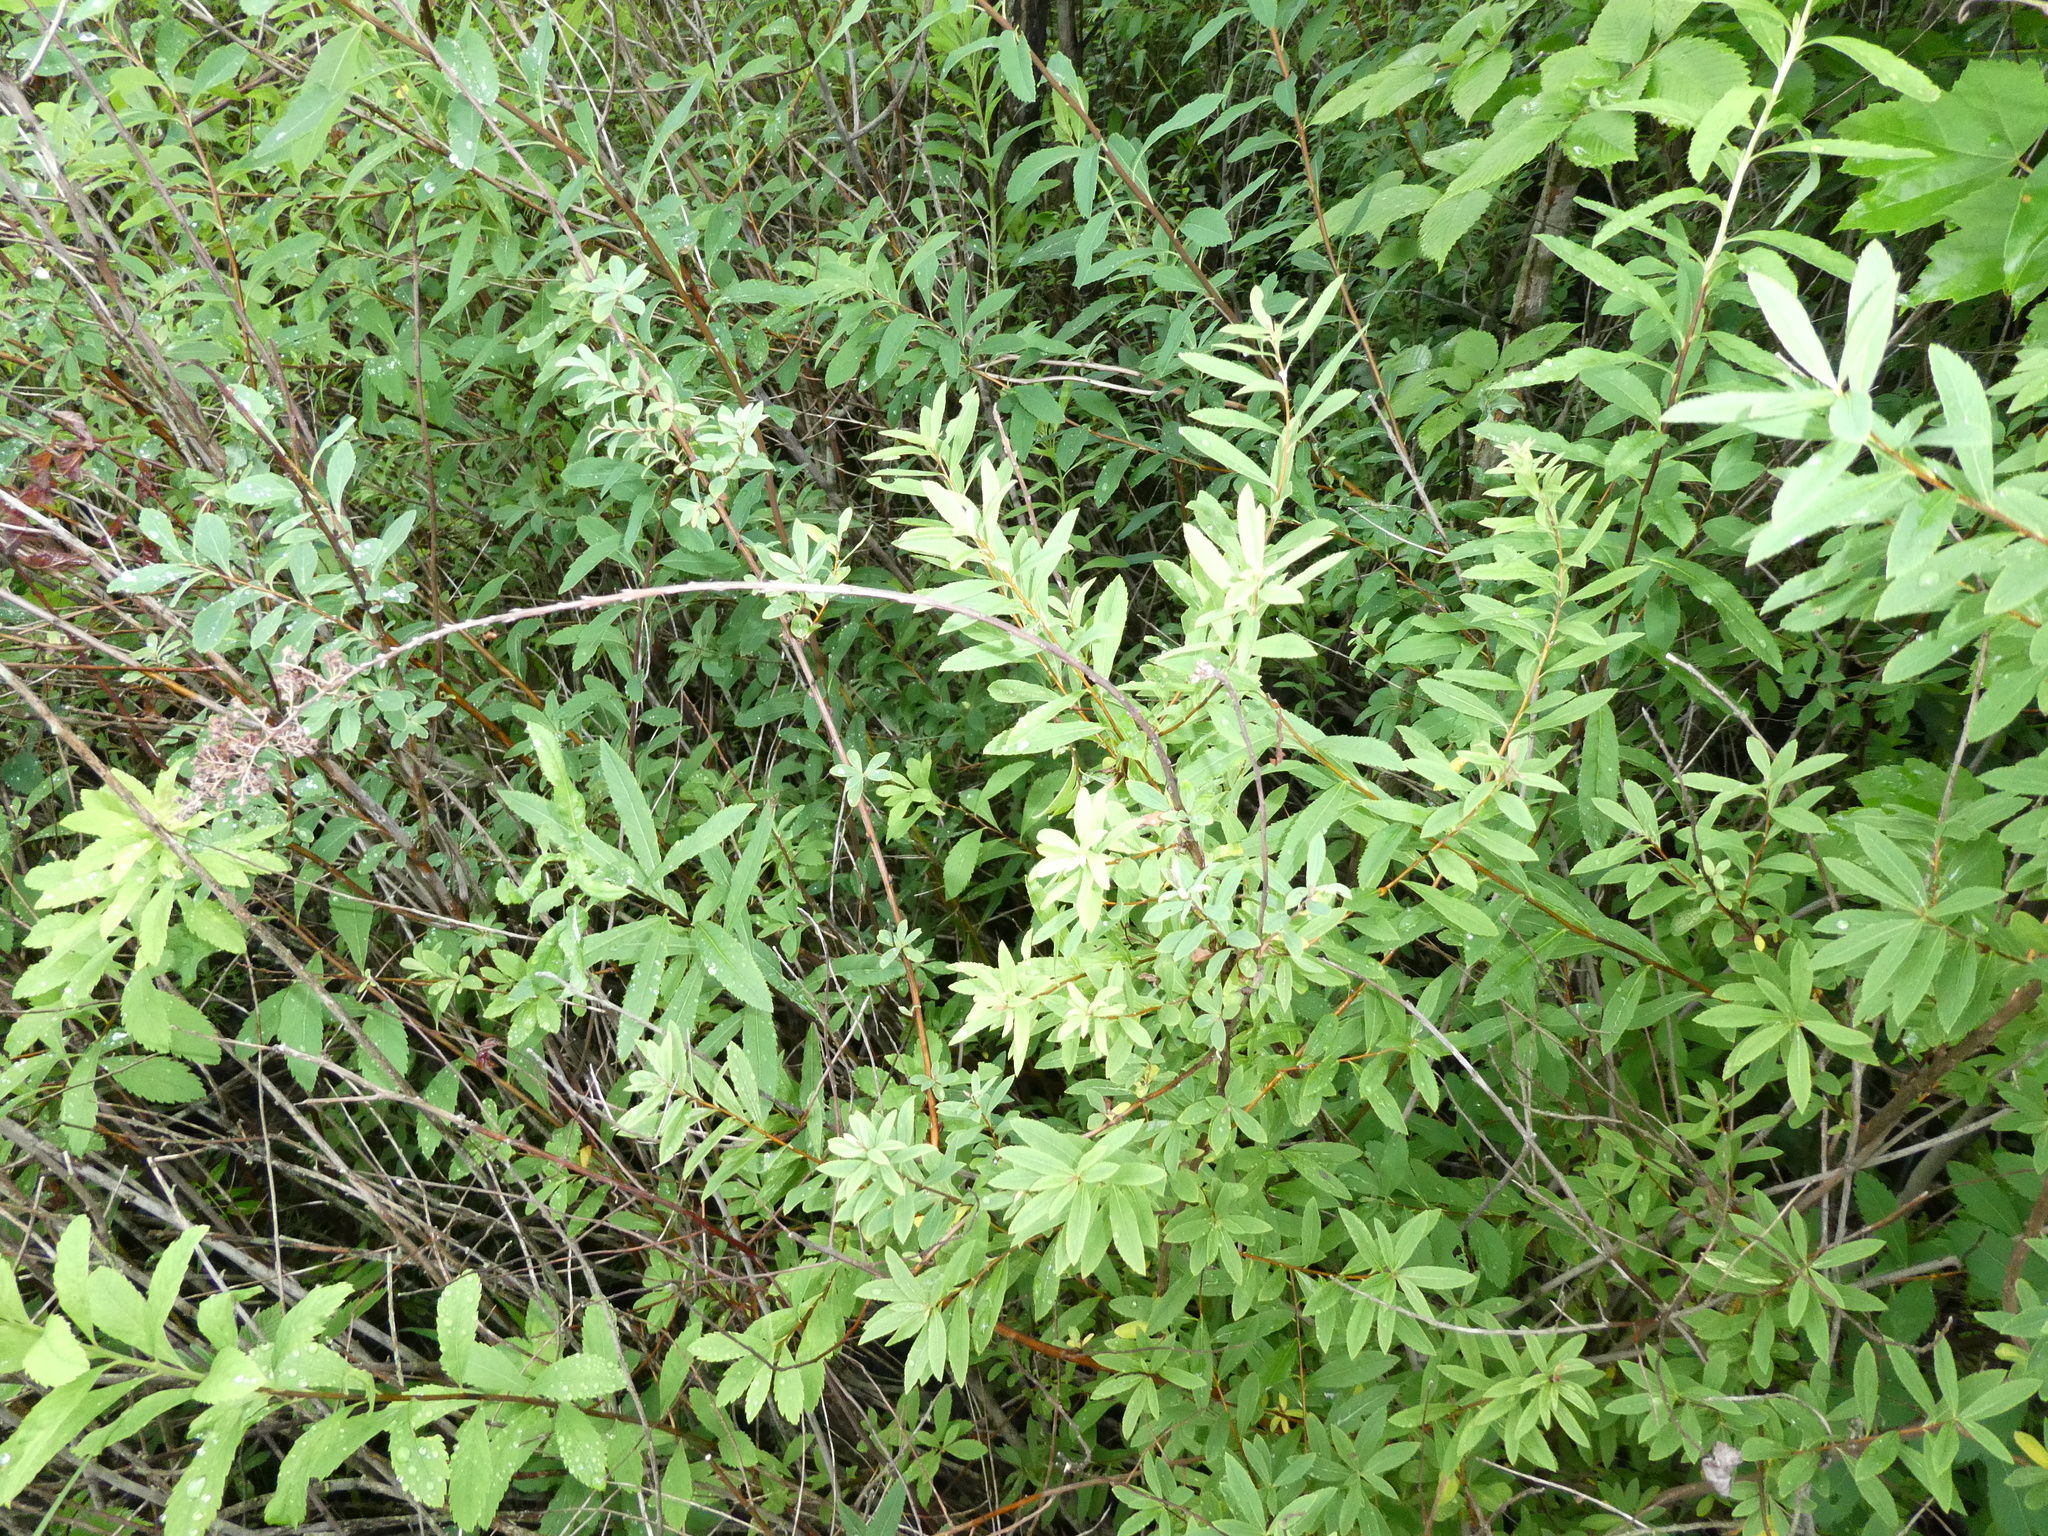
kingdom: Plantae
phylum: Tracheophyta
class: Magnoliopsida
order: Rosales
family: Rosaceae
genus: Spiraea
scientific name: Spiraea alba
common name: Pale bridewort
